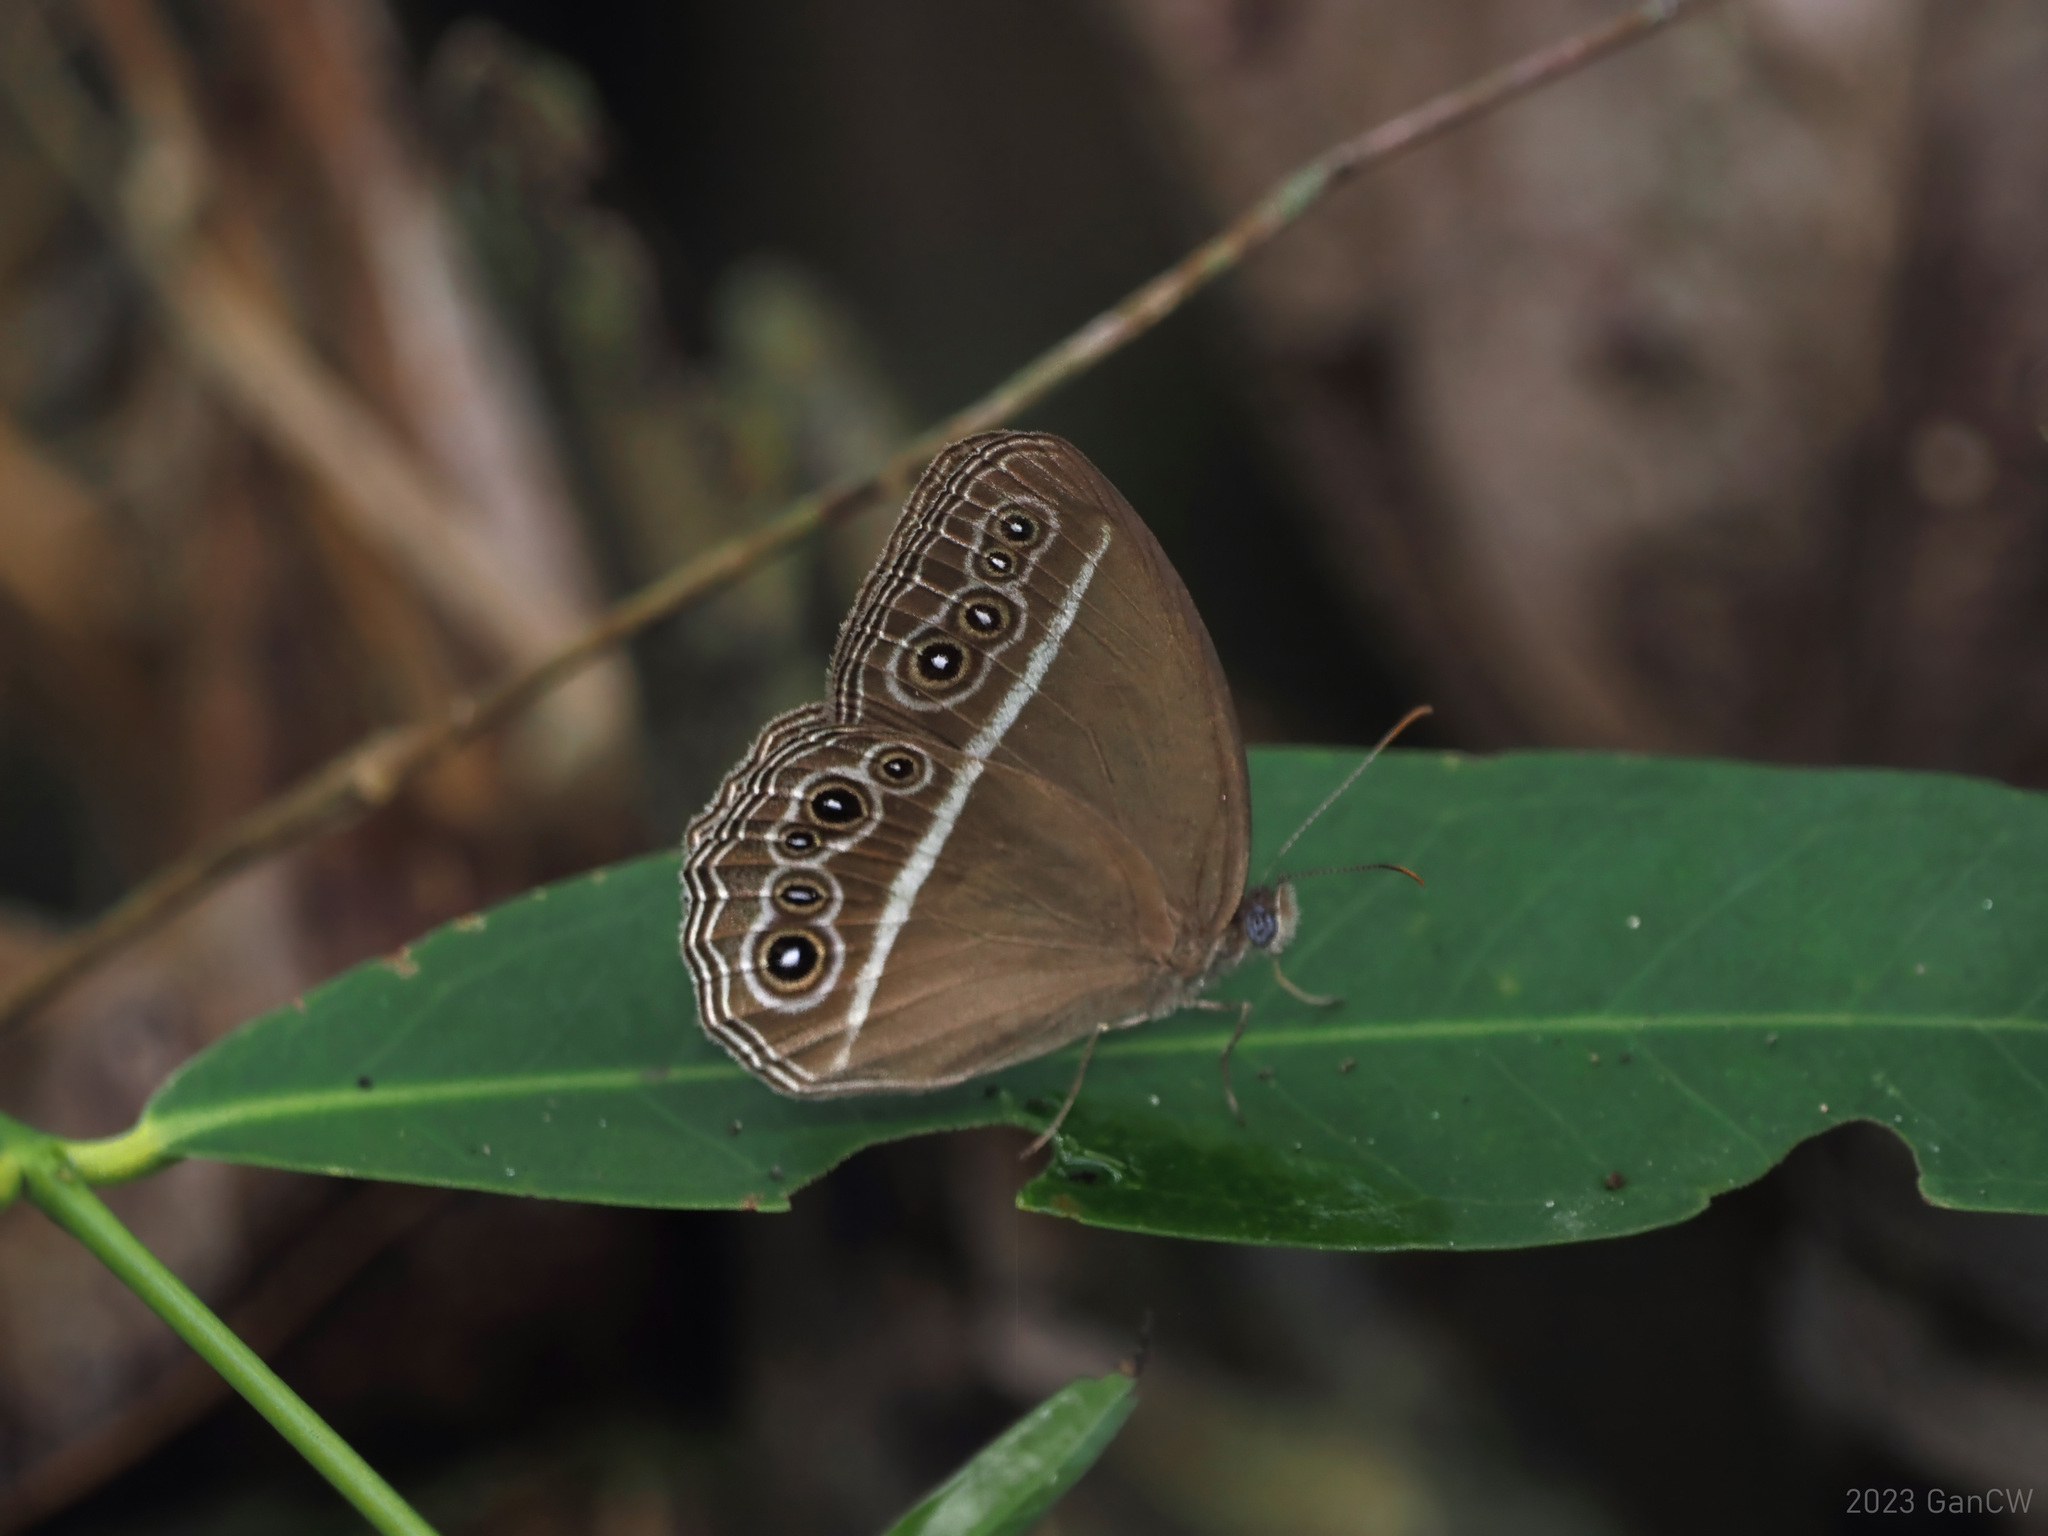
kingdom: Animalia
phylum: Arthropoda
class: Insecta
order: Lepidoptera
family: Nymphalidae
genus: Orsotriaena
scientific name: Orsotriaena jopas
